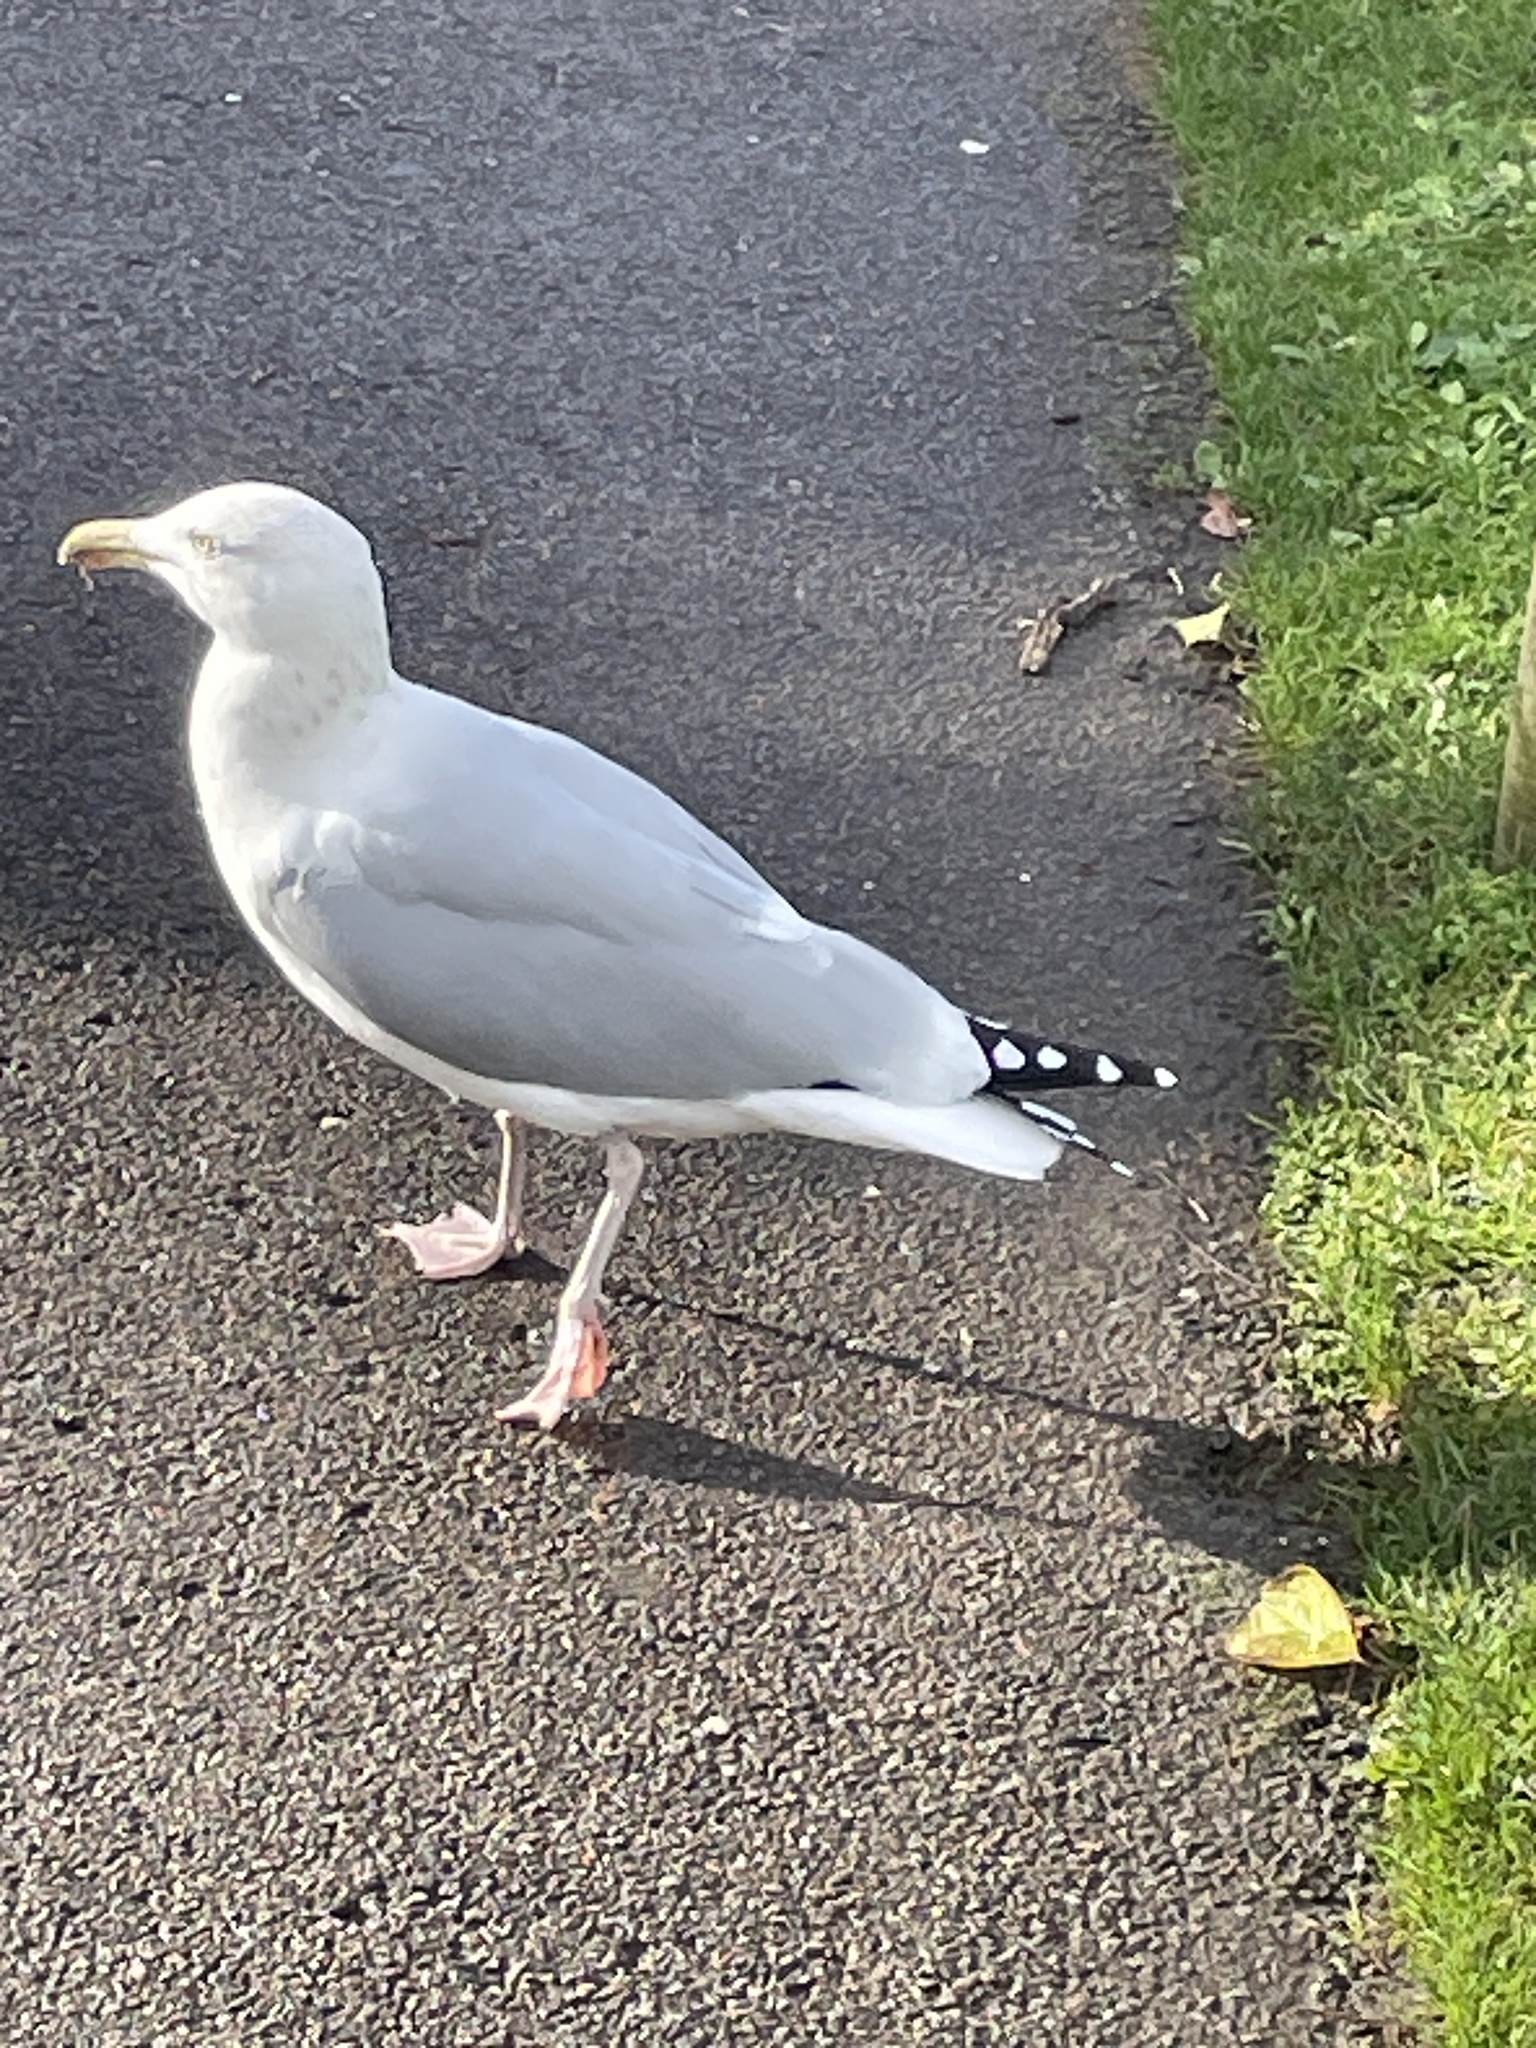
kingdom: Animalia
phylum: Chordata
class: Aves
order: Charadriiformes
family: Laridae
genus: Larus
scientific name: Larus argentatus
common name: Herring gull
